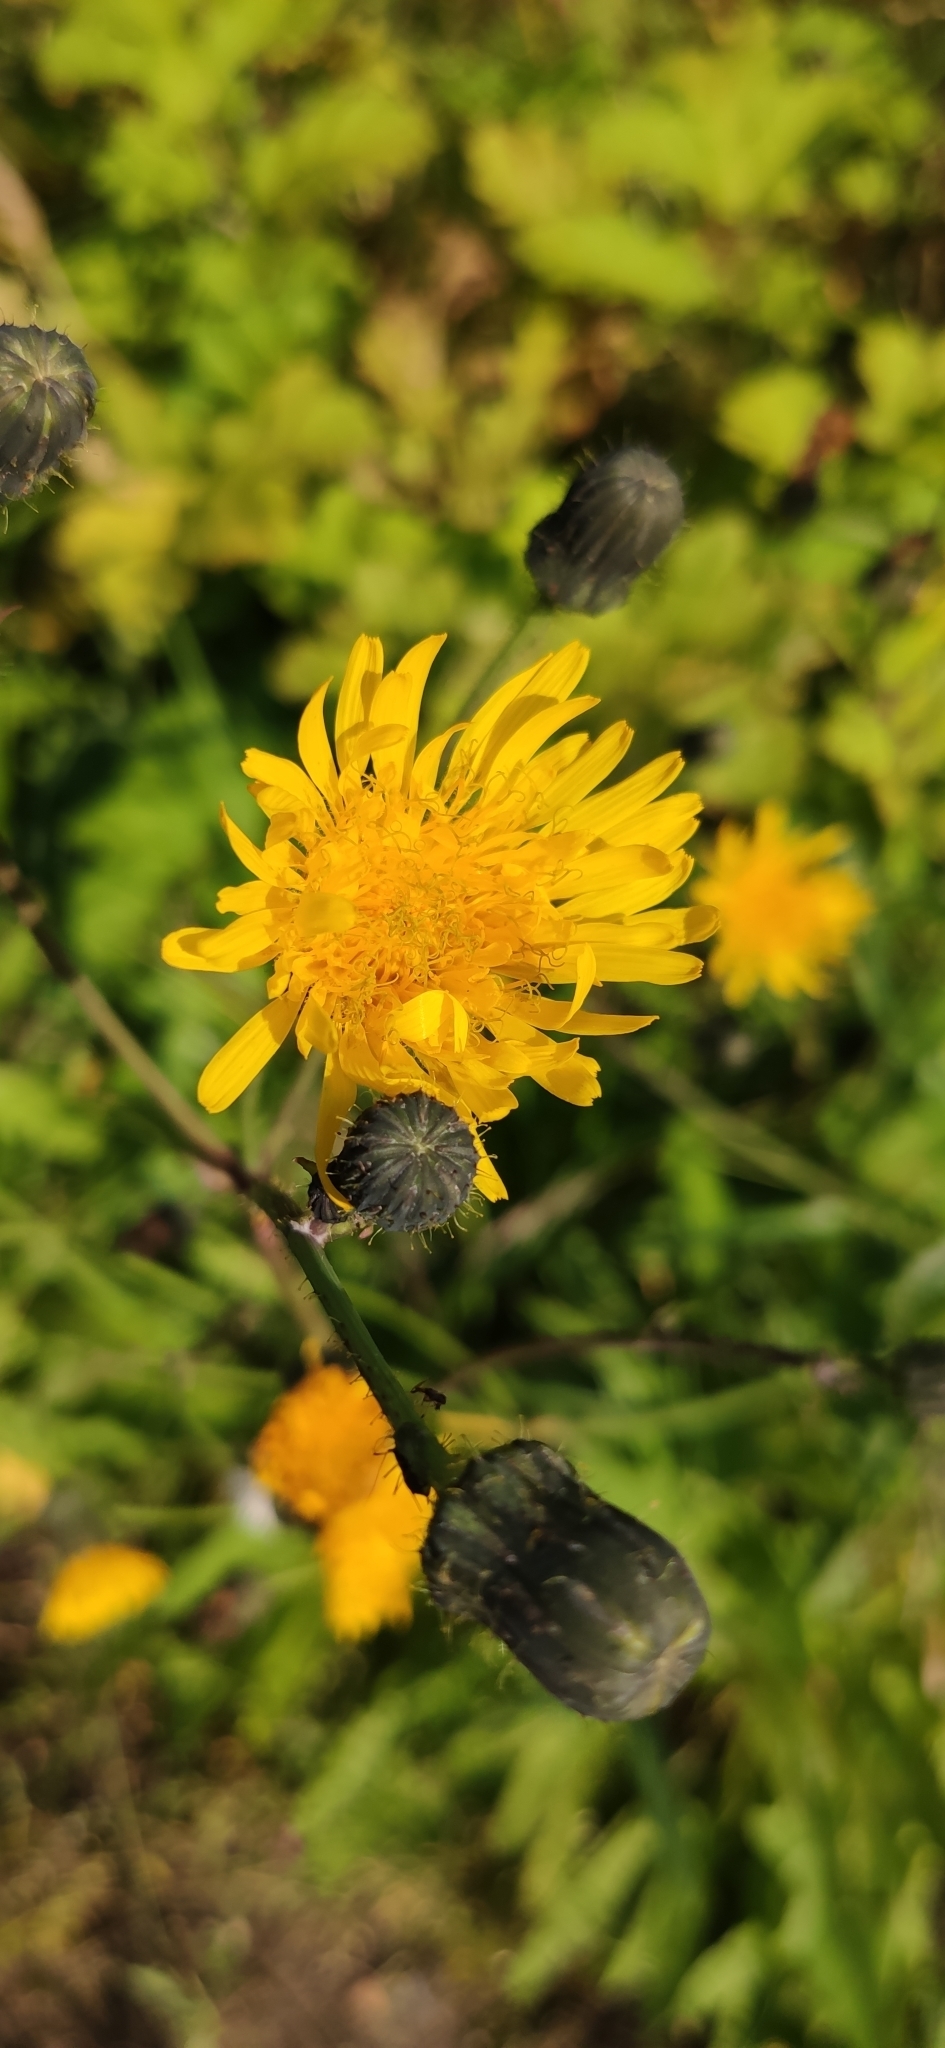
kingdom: Plantae
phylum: Tracheophyta
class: Magnoliopsida
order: Asterales
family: Asteraceae
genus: Sonchus
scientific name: Sonchus arvensis
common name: Perennial sow-thistle
